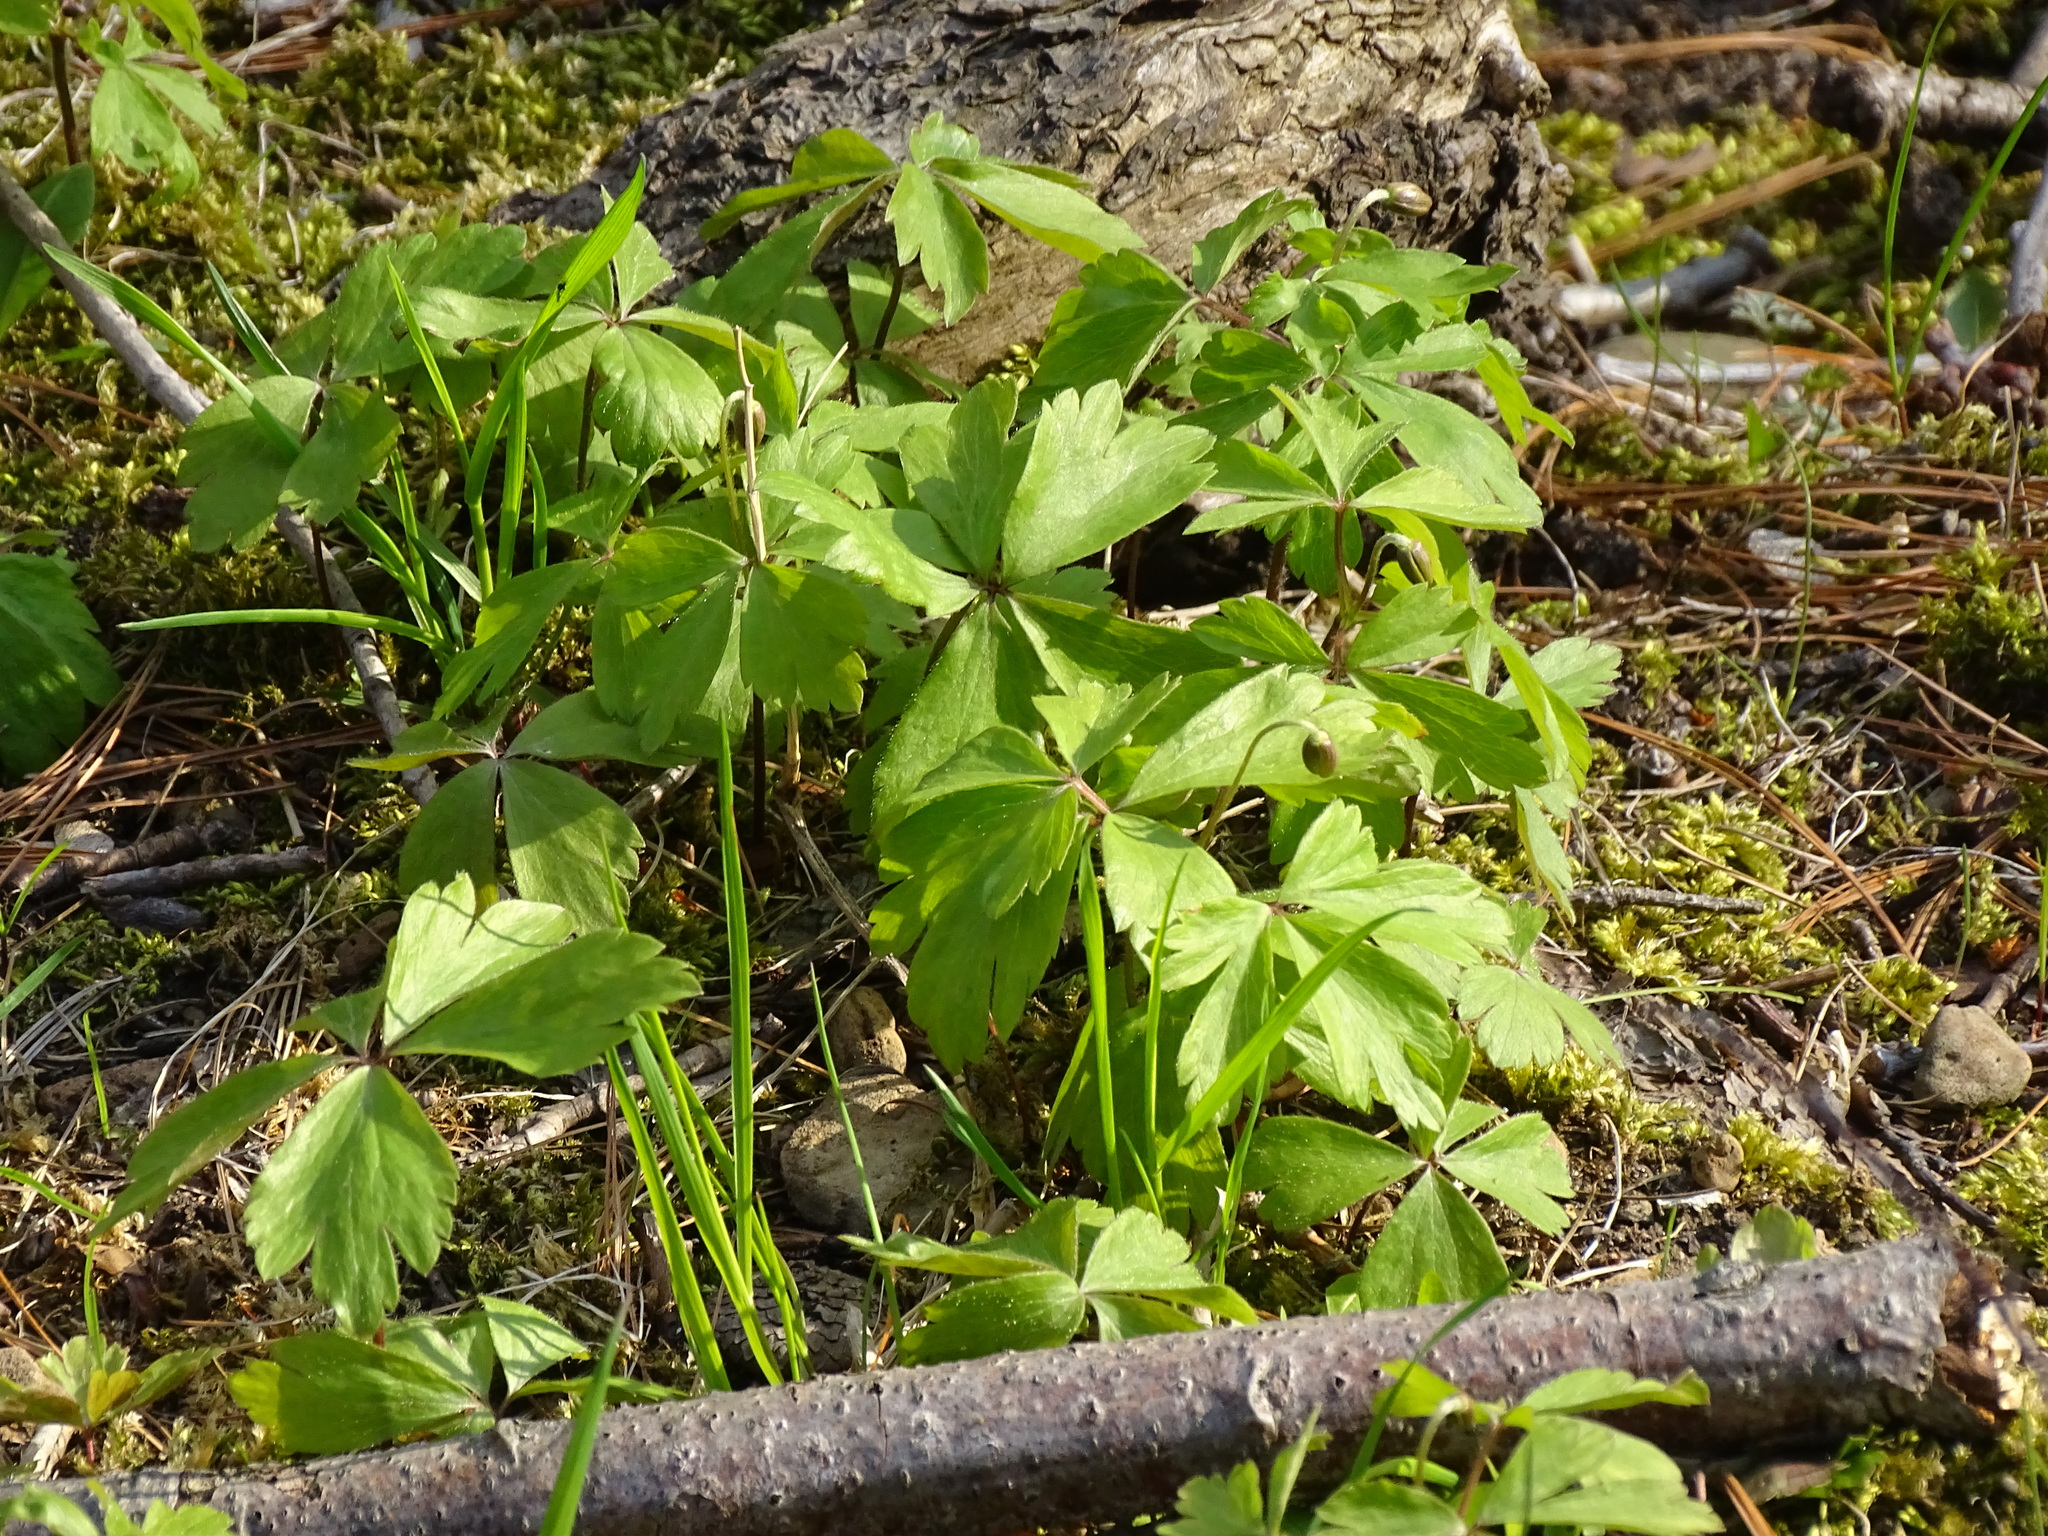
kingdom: Plantae
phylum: Tracheophyta
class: Magnoliopsida
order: Ranunculales
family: Ranunculaceae
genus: Anemone
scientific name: Anemone quinquefolia
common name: Wood anemone
